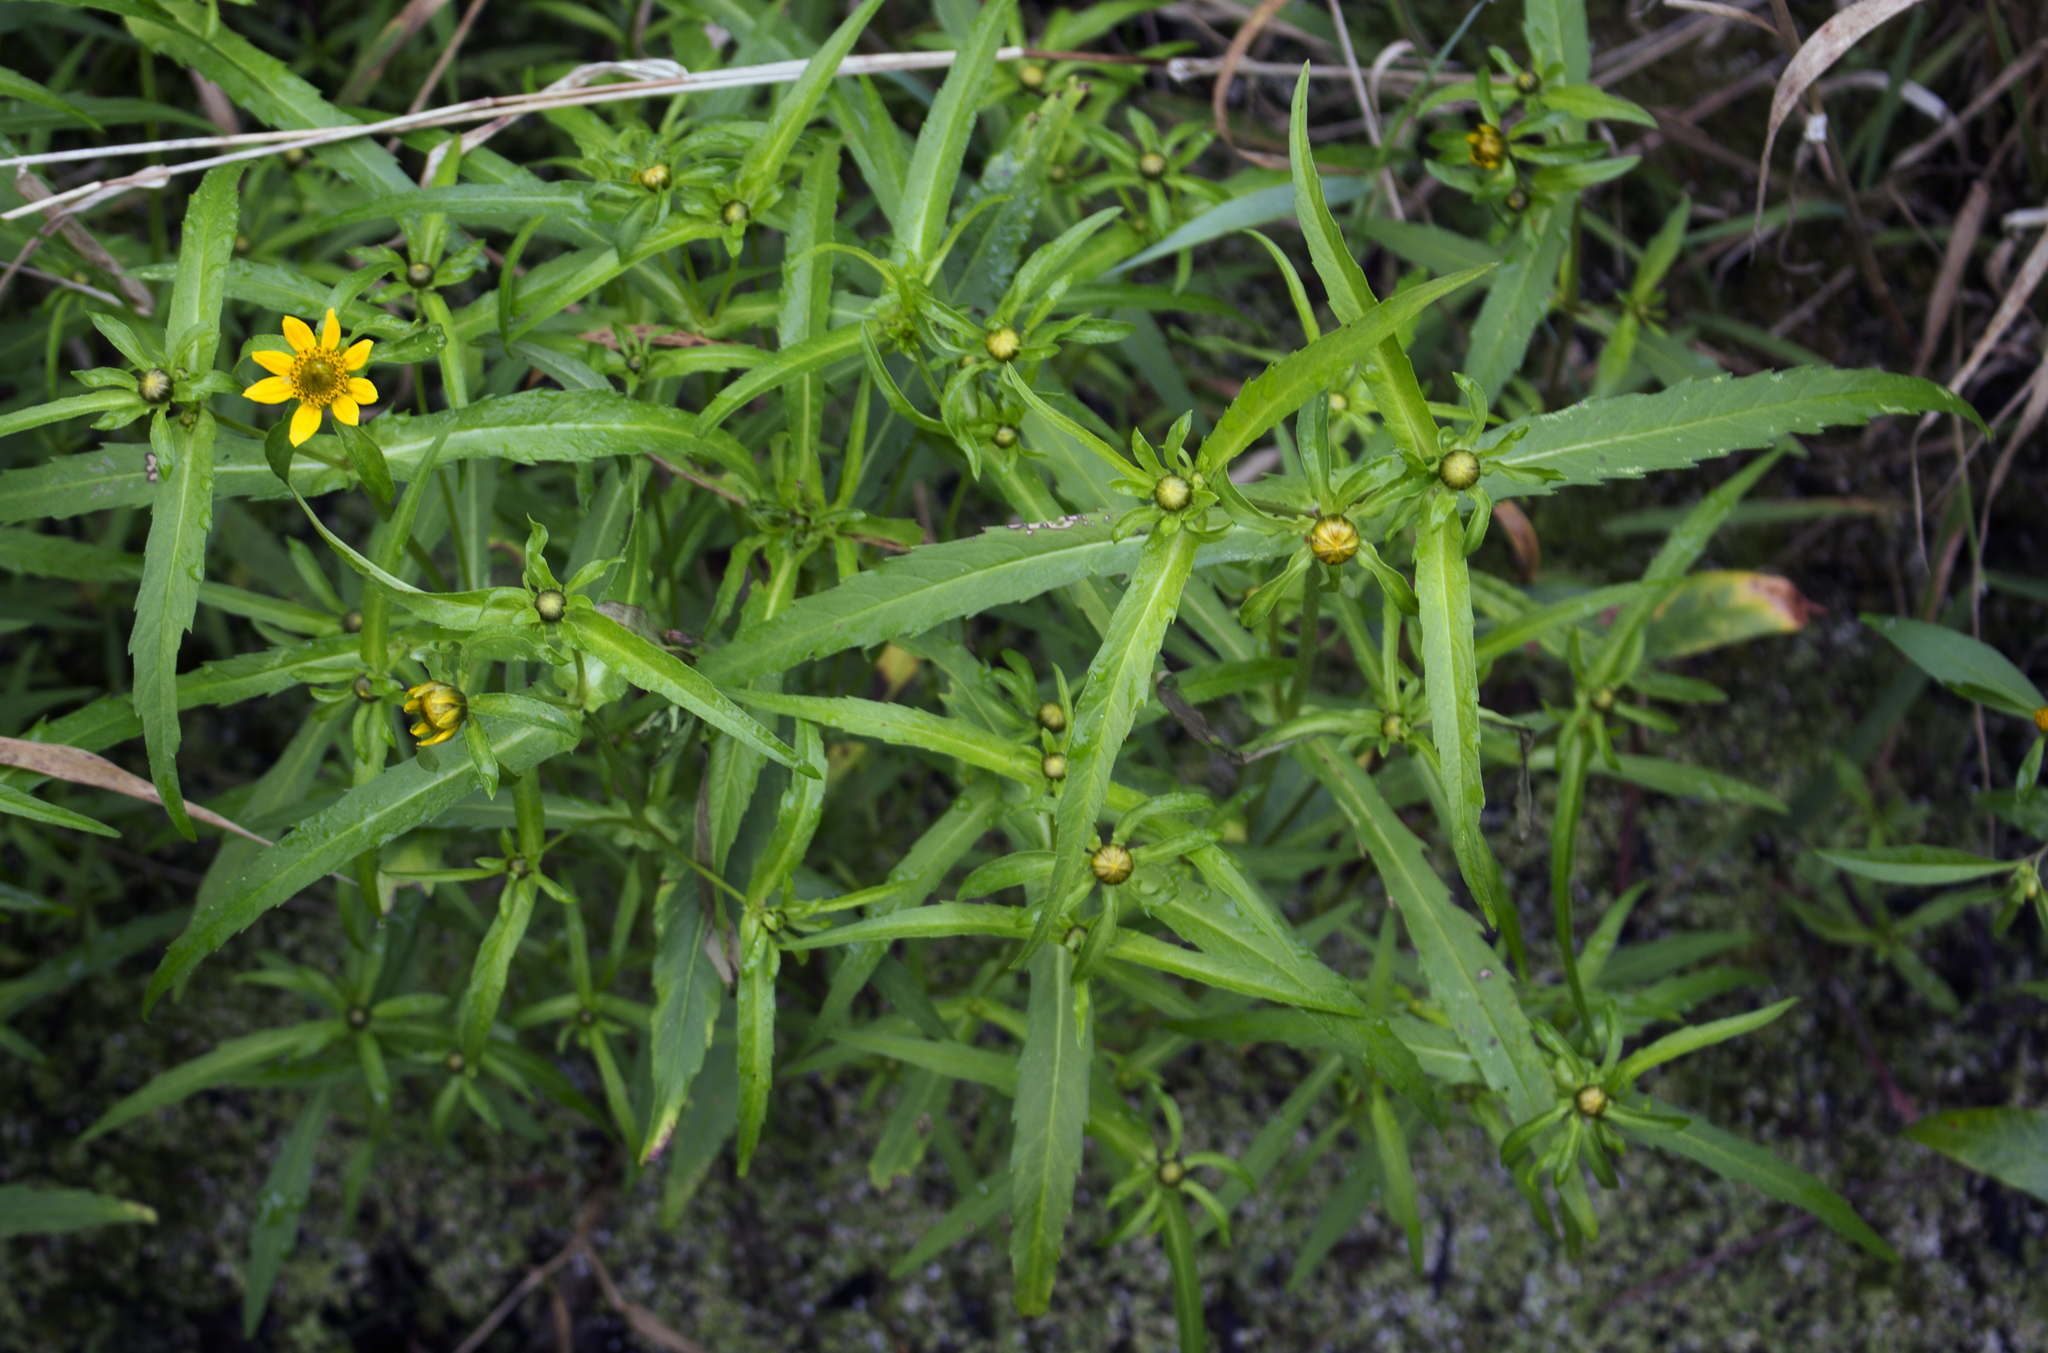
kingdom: Plantae
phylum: Tracheophyta
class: Magnoliopsida
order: Asterales
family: Asteraceae
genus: Bidens
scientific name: Bidens cernua
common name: Nodding bur-marigold
